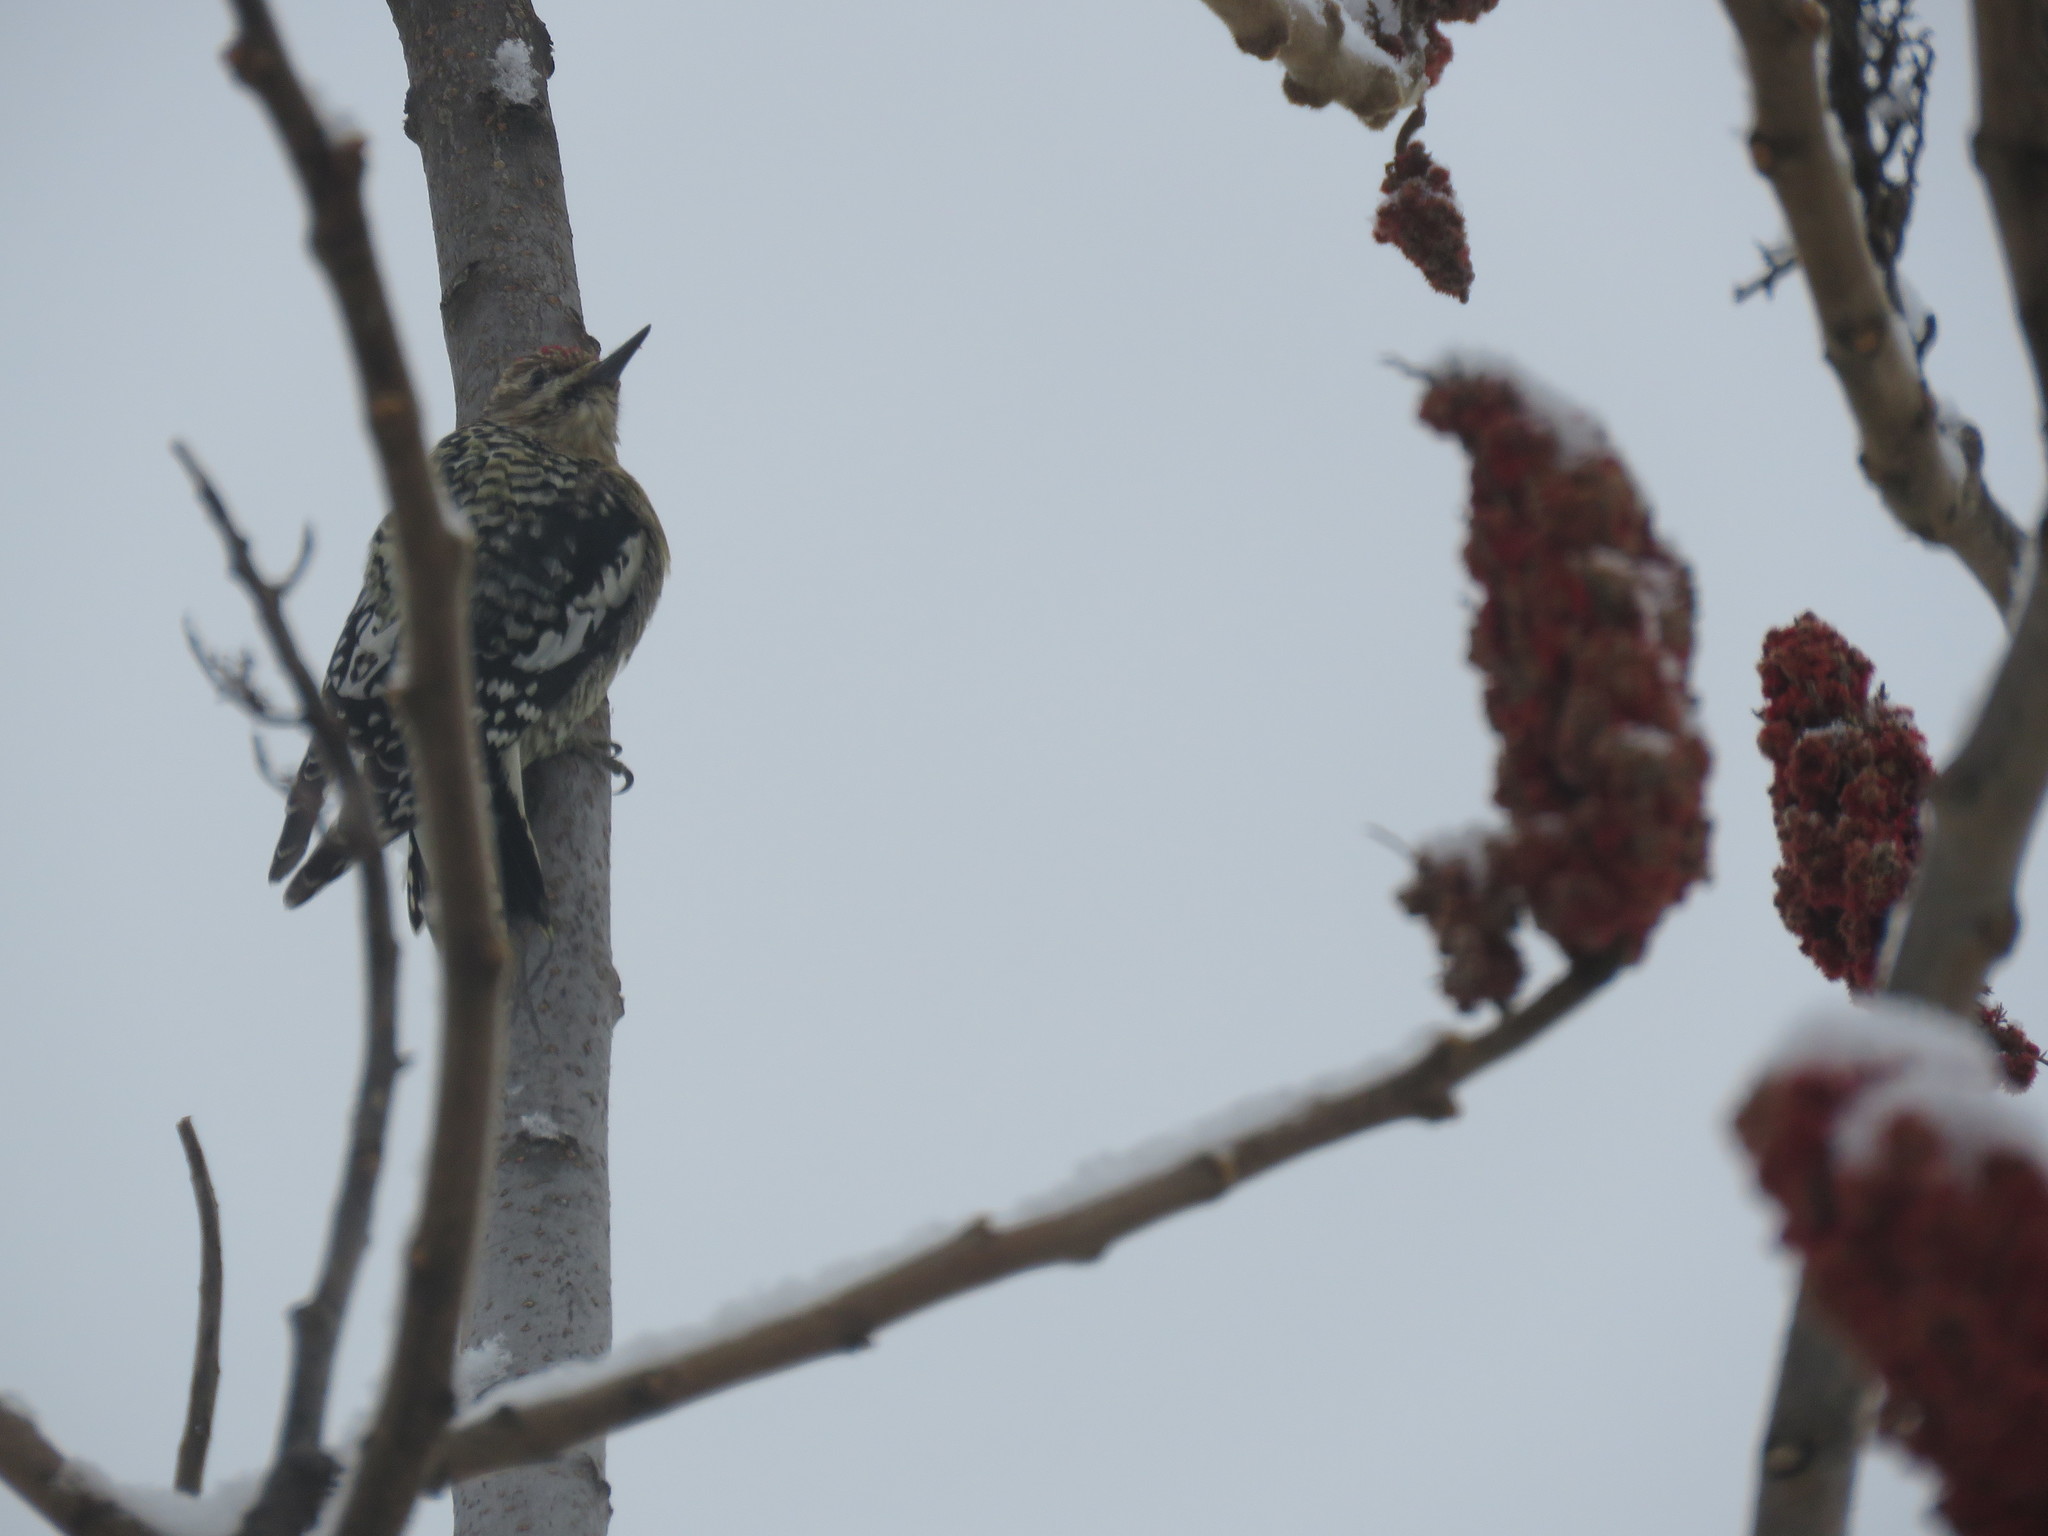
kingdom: Animalia
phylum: Chordata
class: Aves
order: Piciformes
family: Picidae
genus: Sphyrapicus
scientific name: Sphyrapicus varius
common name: Yellow-bellied sapsucker
